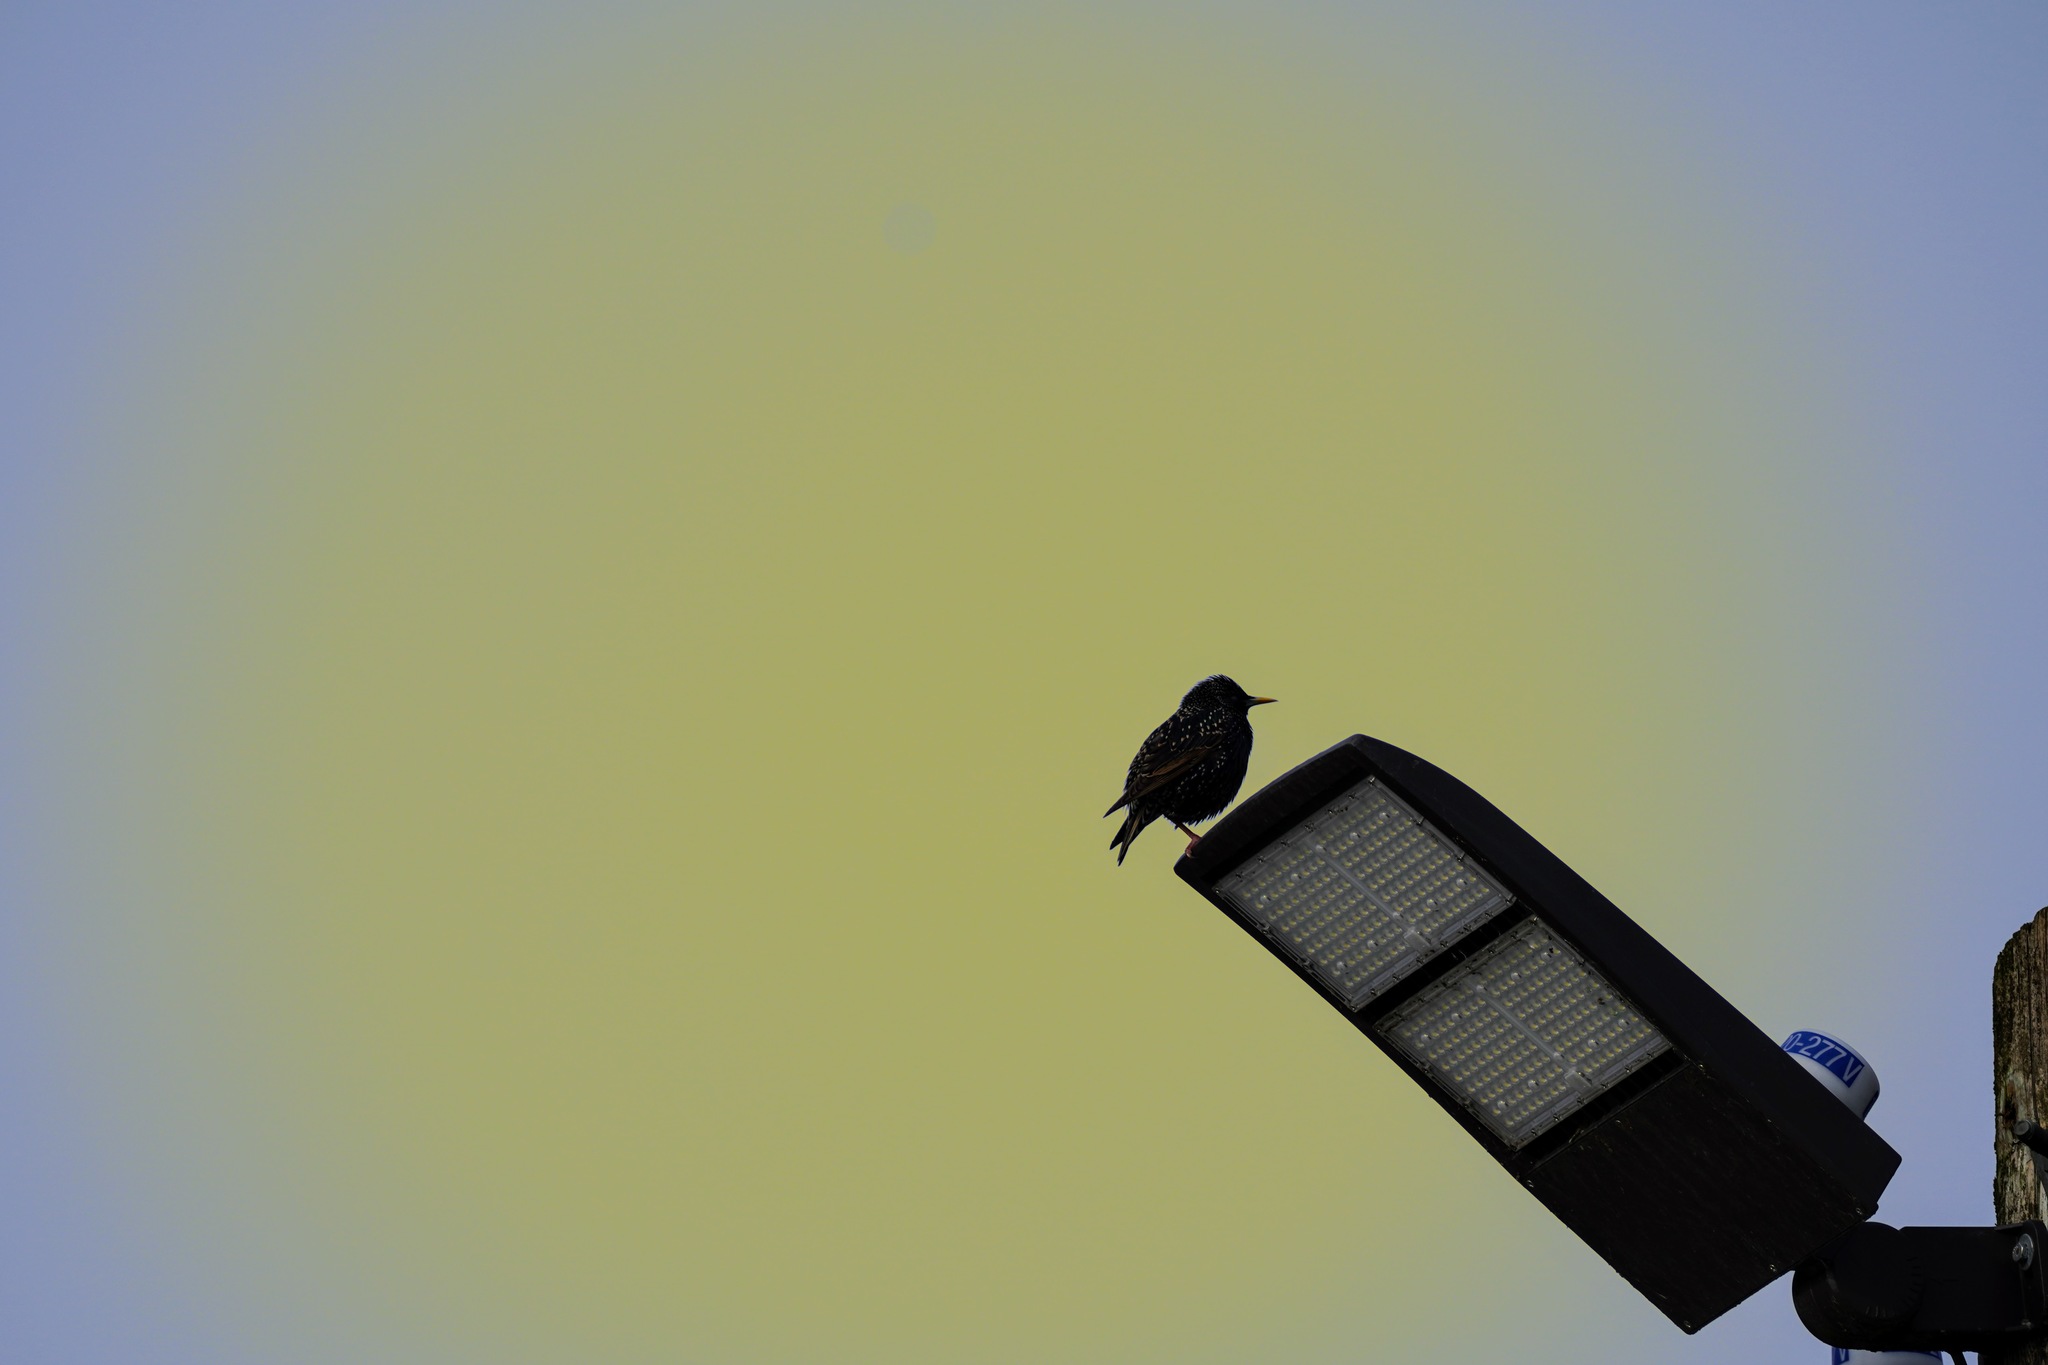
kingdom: Animalia
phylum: Chordata
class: Aves
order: Passeriformes
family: Sturnidae
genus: Sturnus
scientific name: Sturnus vulgaris
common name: Common starling
